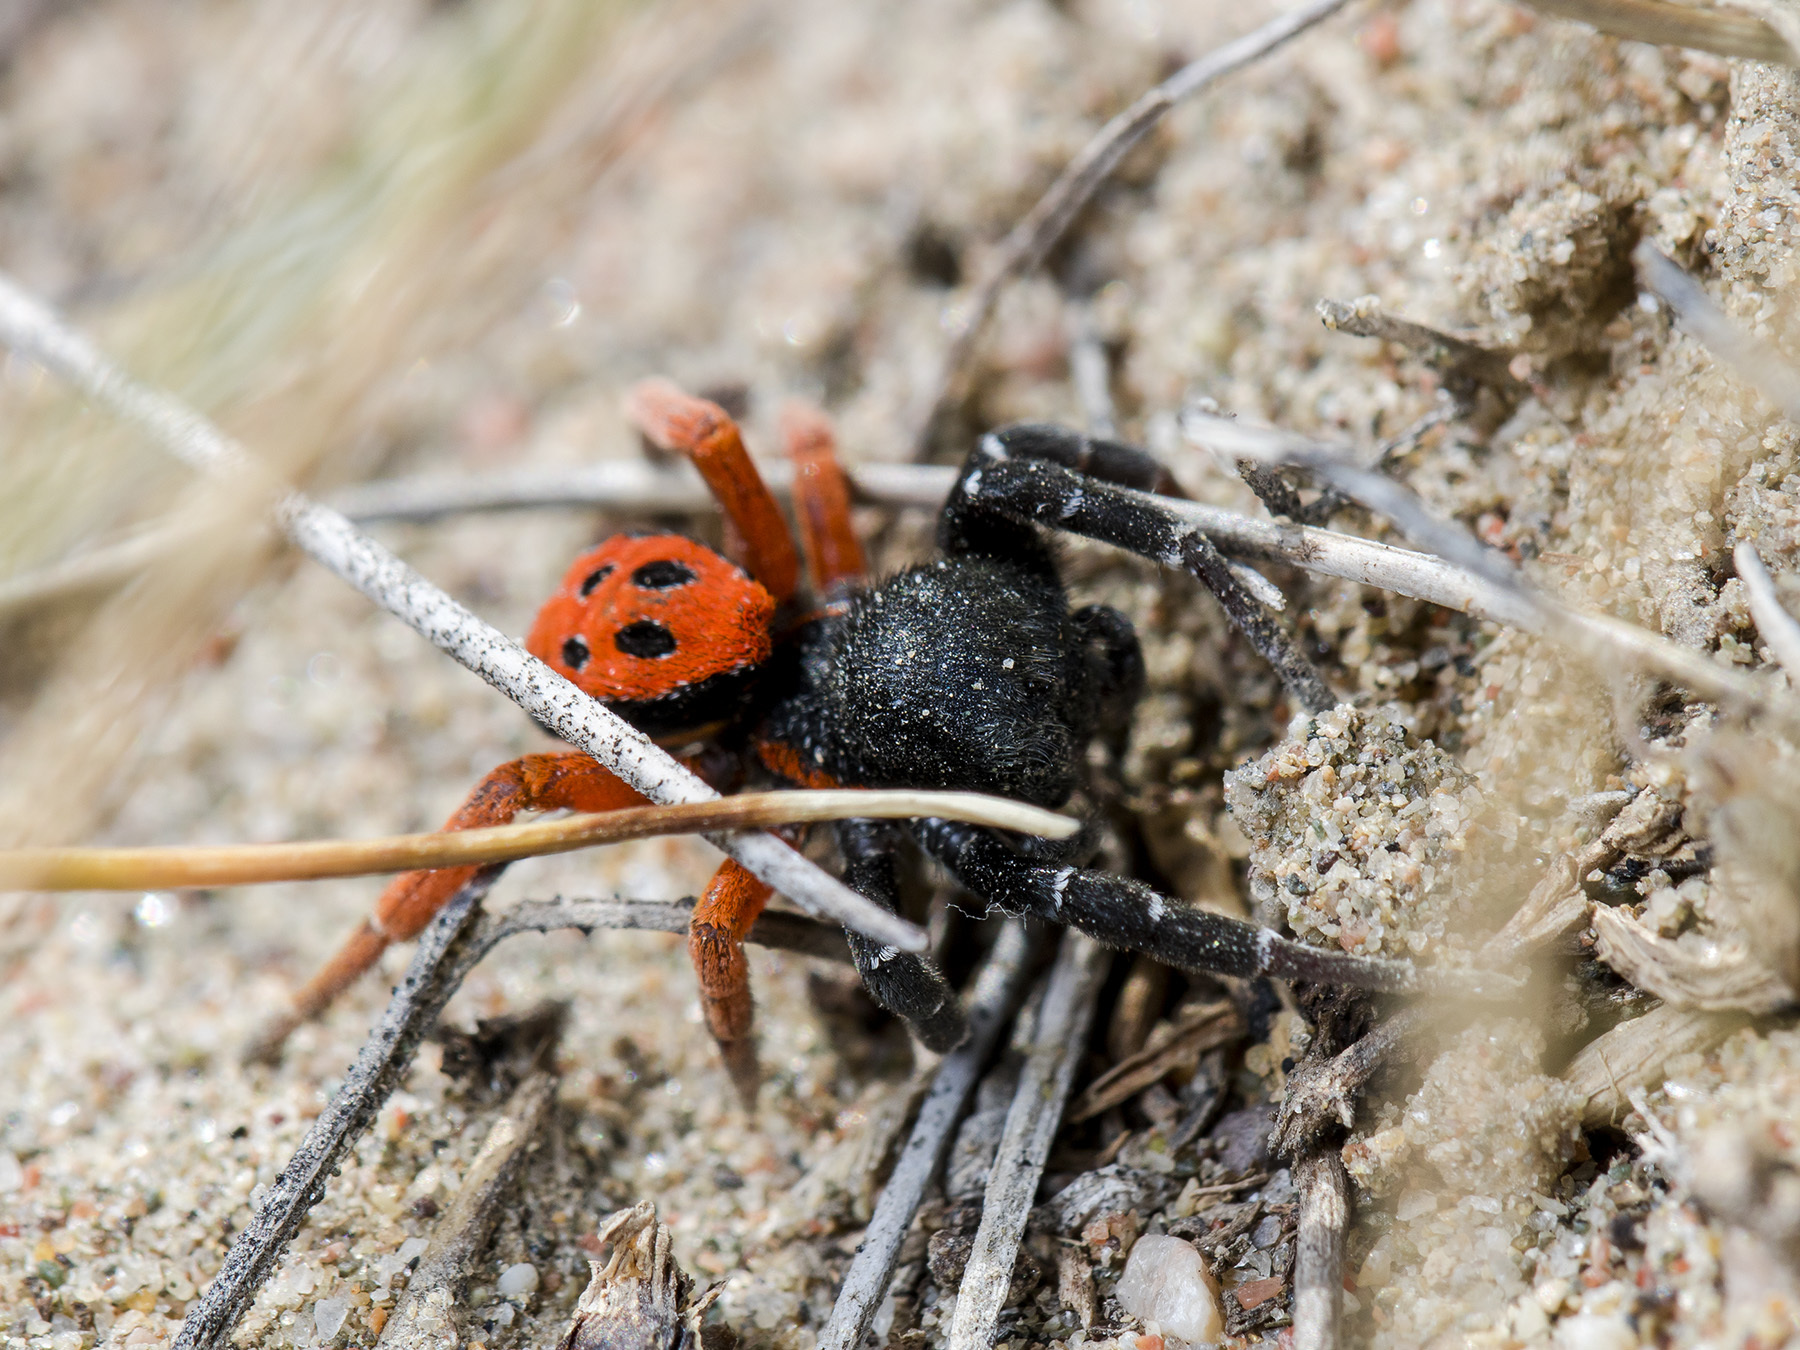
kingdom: Animalia
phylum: Arthropoda
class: Arachnida
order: Araneae
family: Eresidae
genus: Eresus
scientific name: Eresus kollari
